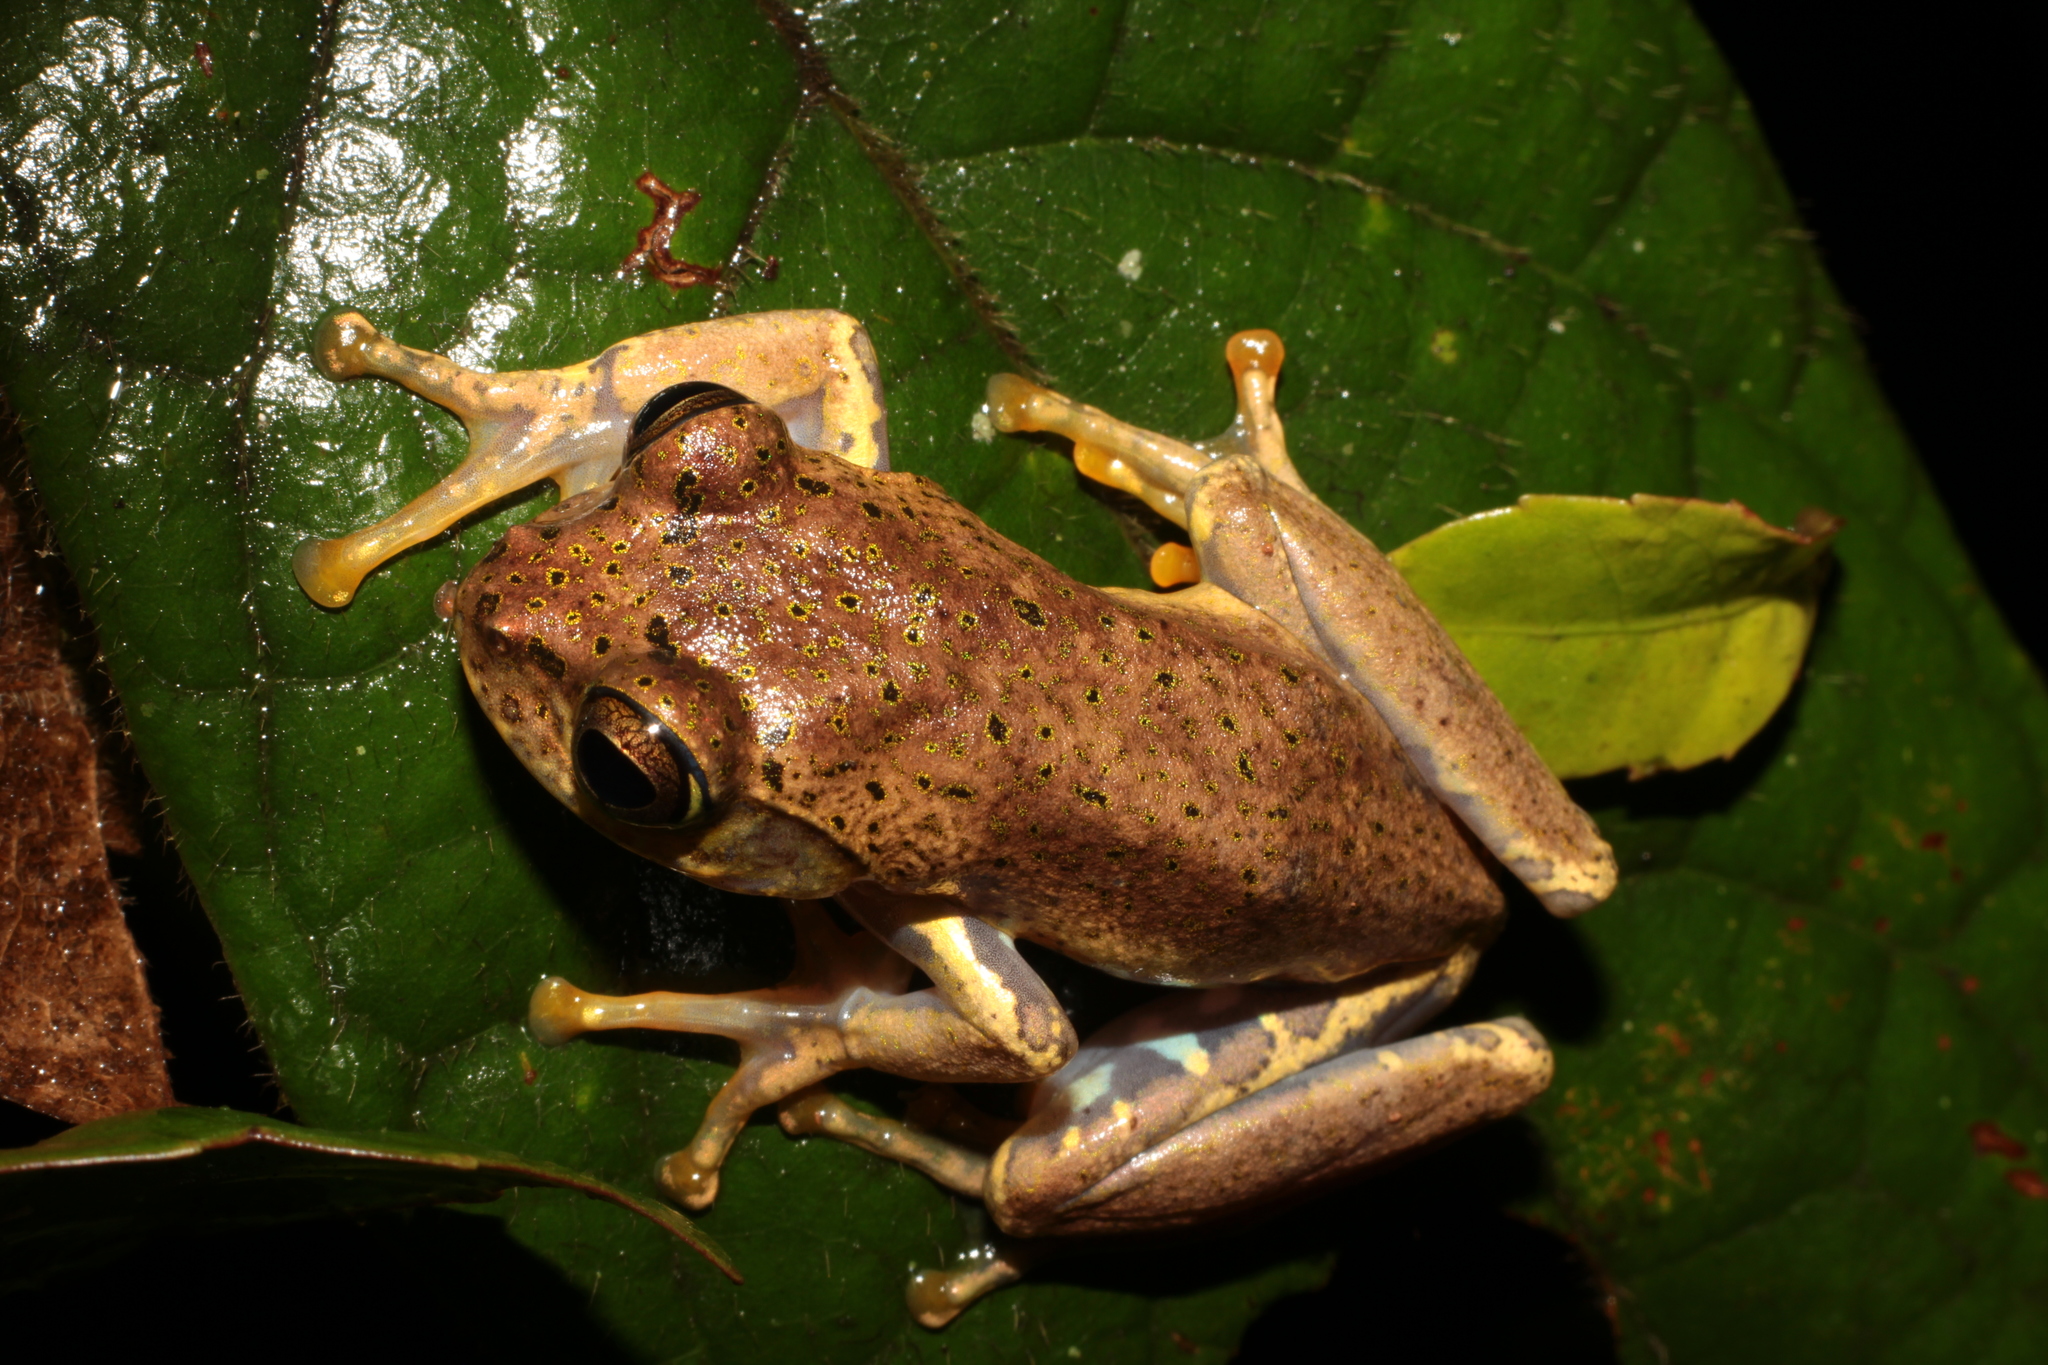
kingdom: Animalia
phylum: Chordata
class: Amphibia
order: Anura
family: Mantellidae
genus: Boophis
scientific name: Boophis idae
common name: Ida's bright-eyed frog
